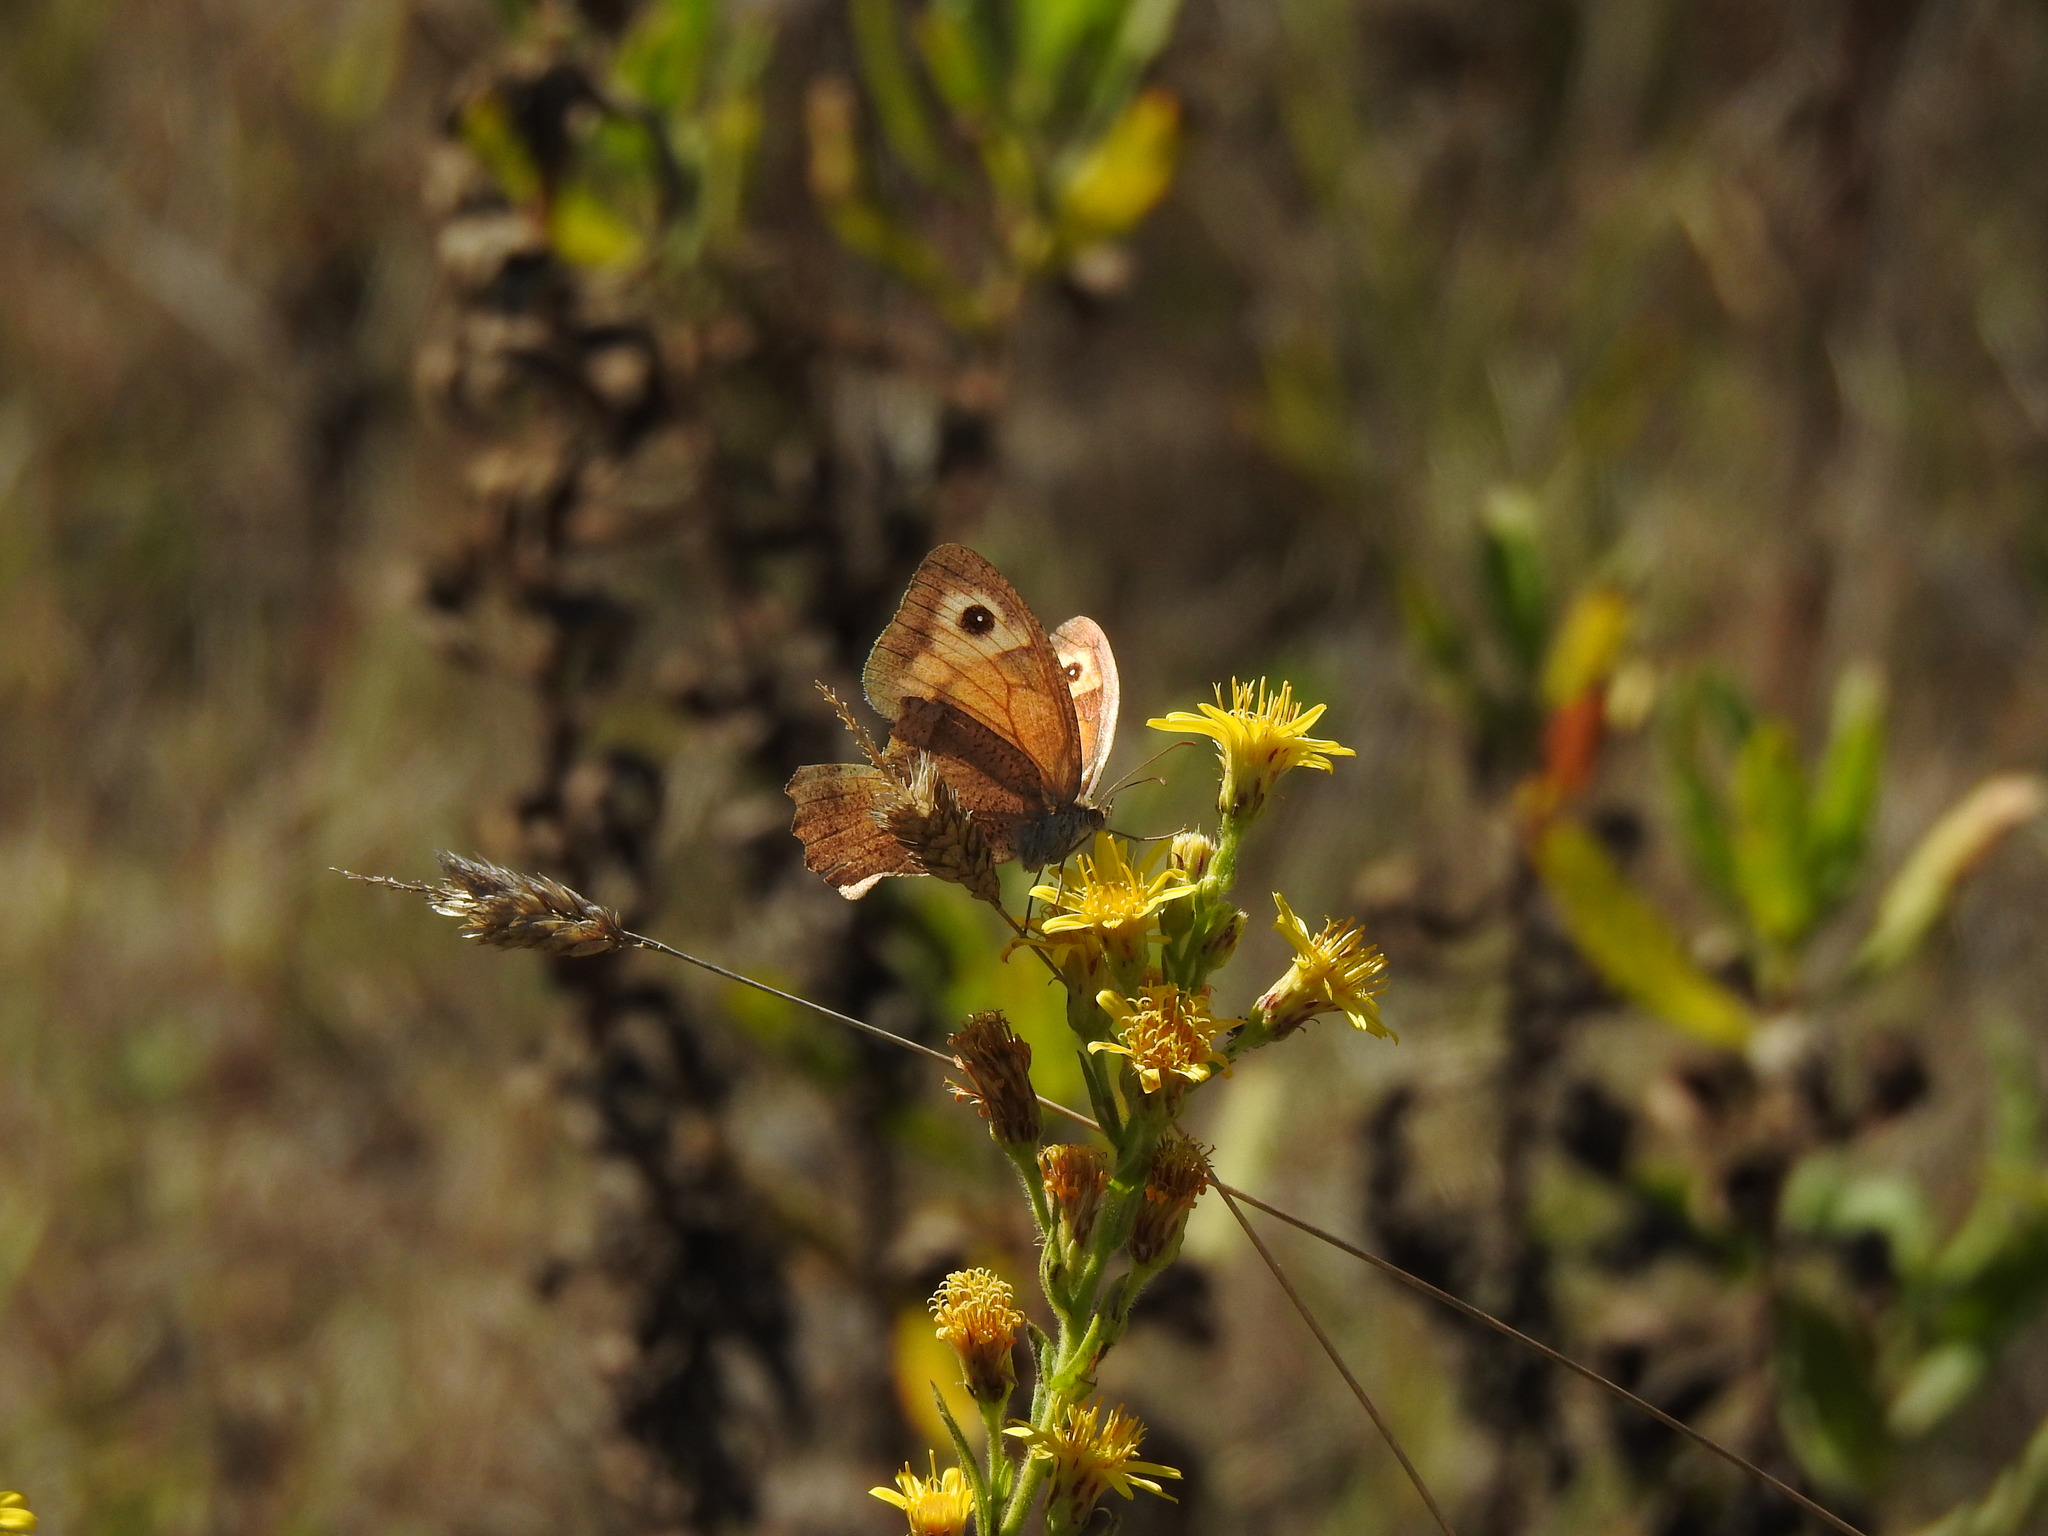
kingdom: Animalia
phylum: Arthropoda
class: Insecta
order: Lepidoptera
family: Nymphalidae
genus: Maniola
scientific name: Maniola jurtina
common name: Meadow brown
